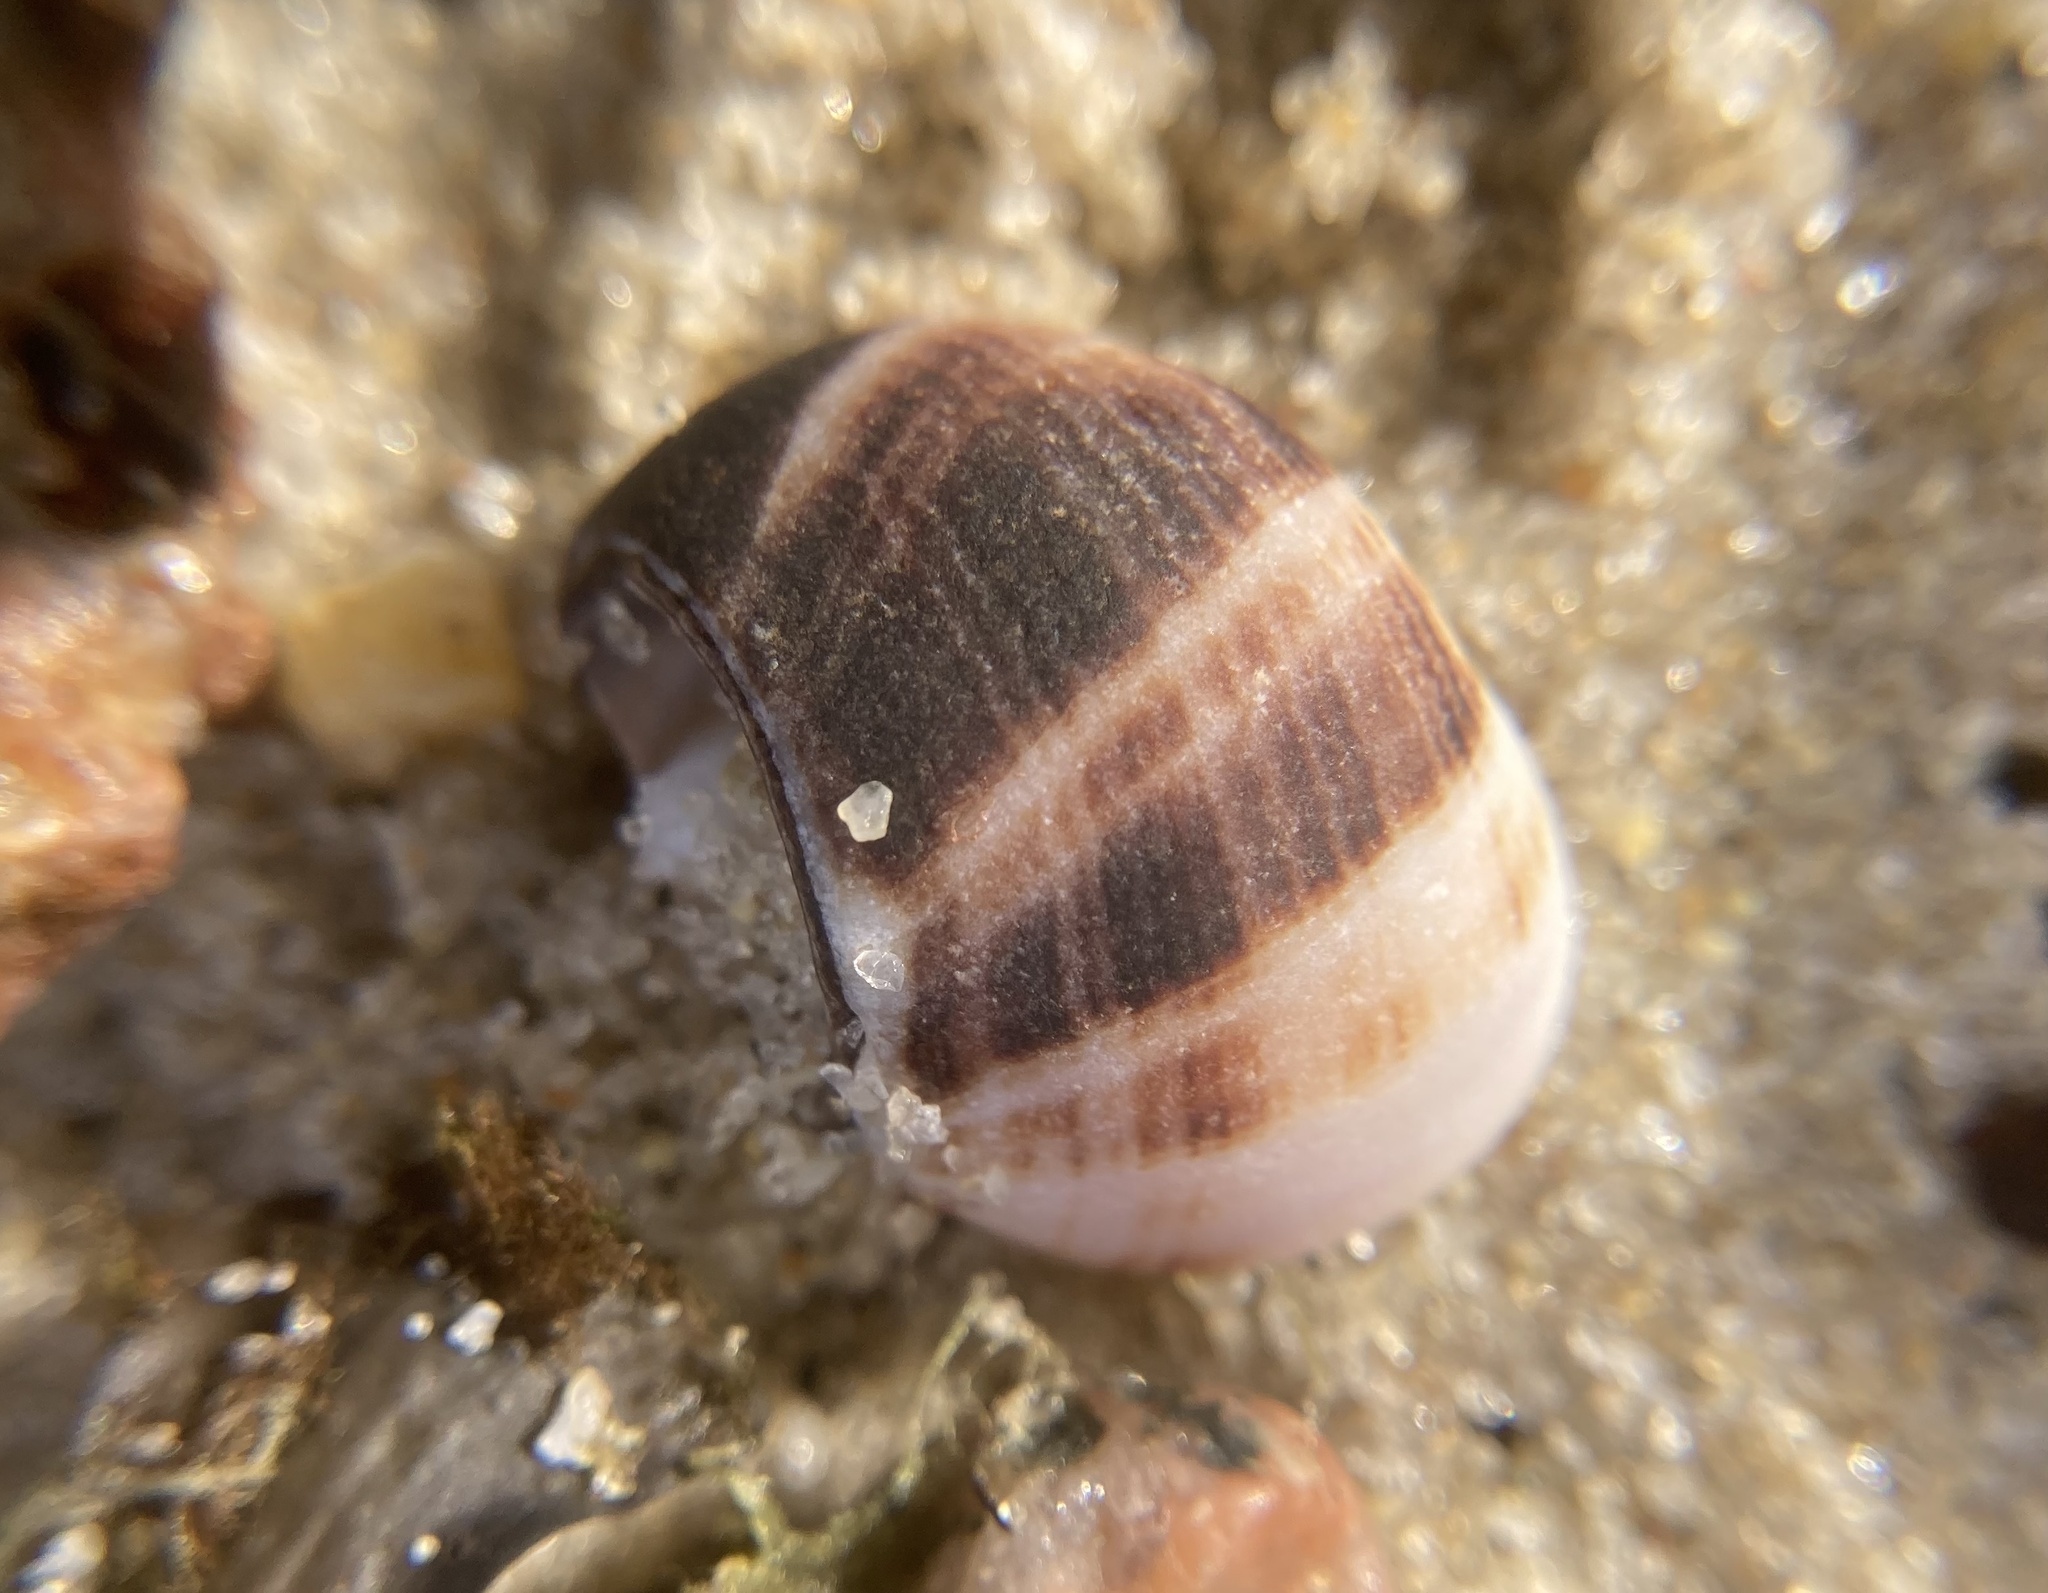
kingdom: Animalia
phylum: Mollusca
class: Gastropoda
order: Littorinimorpha
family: Littorinidae
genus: Littorina
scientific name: Littorina littorea
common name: Common periwinkle
